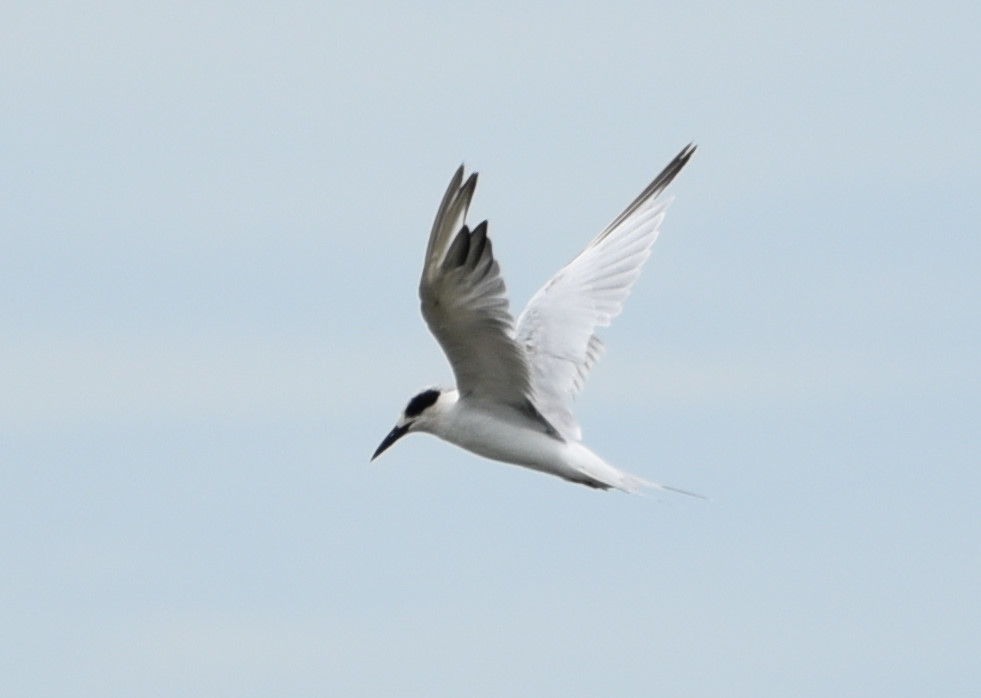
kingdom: Animalia
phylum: Chordata
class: Aves
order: Charadriiformes
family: Laridae
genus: Sterna
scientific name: Sterna forsteri
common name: Forster's tern
